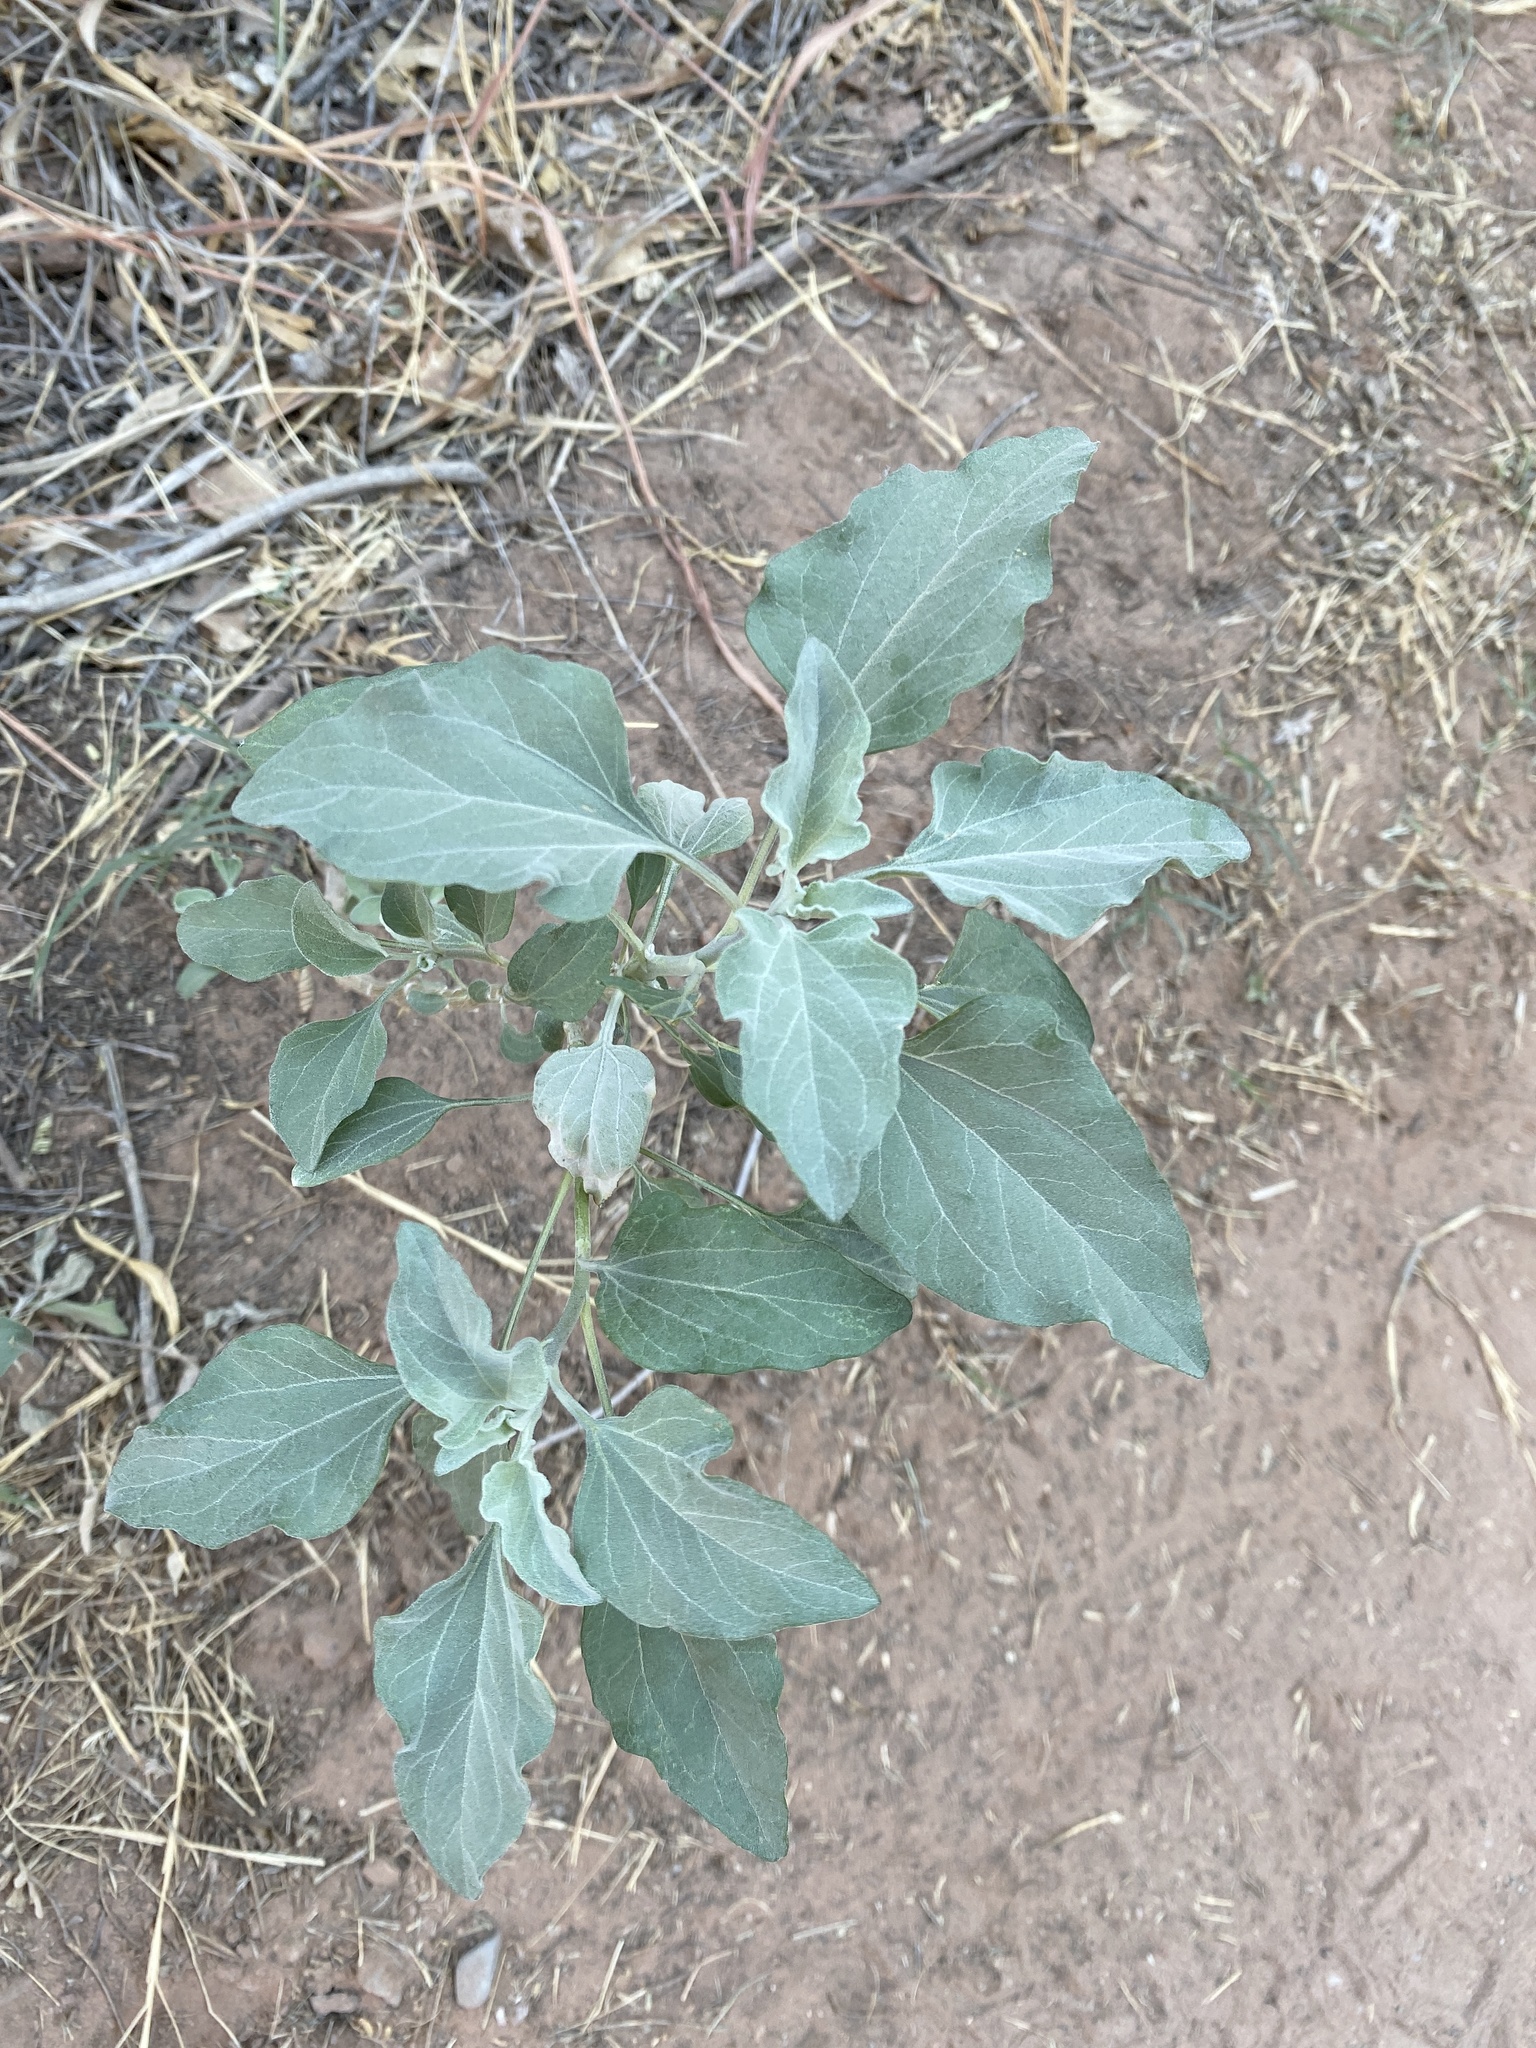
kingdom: Plantae
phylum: Tracheophyta
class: Magnoliopsida
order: Asterales
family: Asteraceae
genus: Encelia
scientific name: Encelia farinosa
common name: Brittlebush
